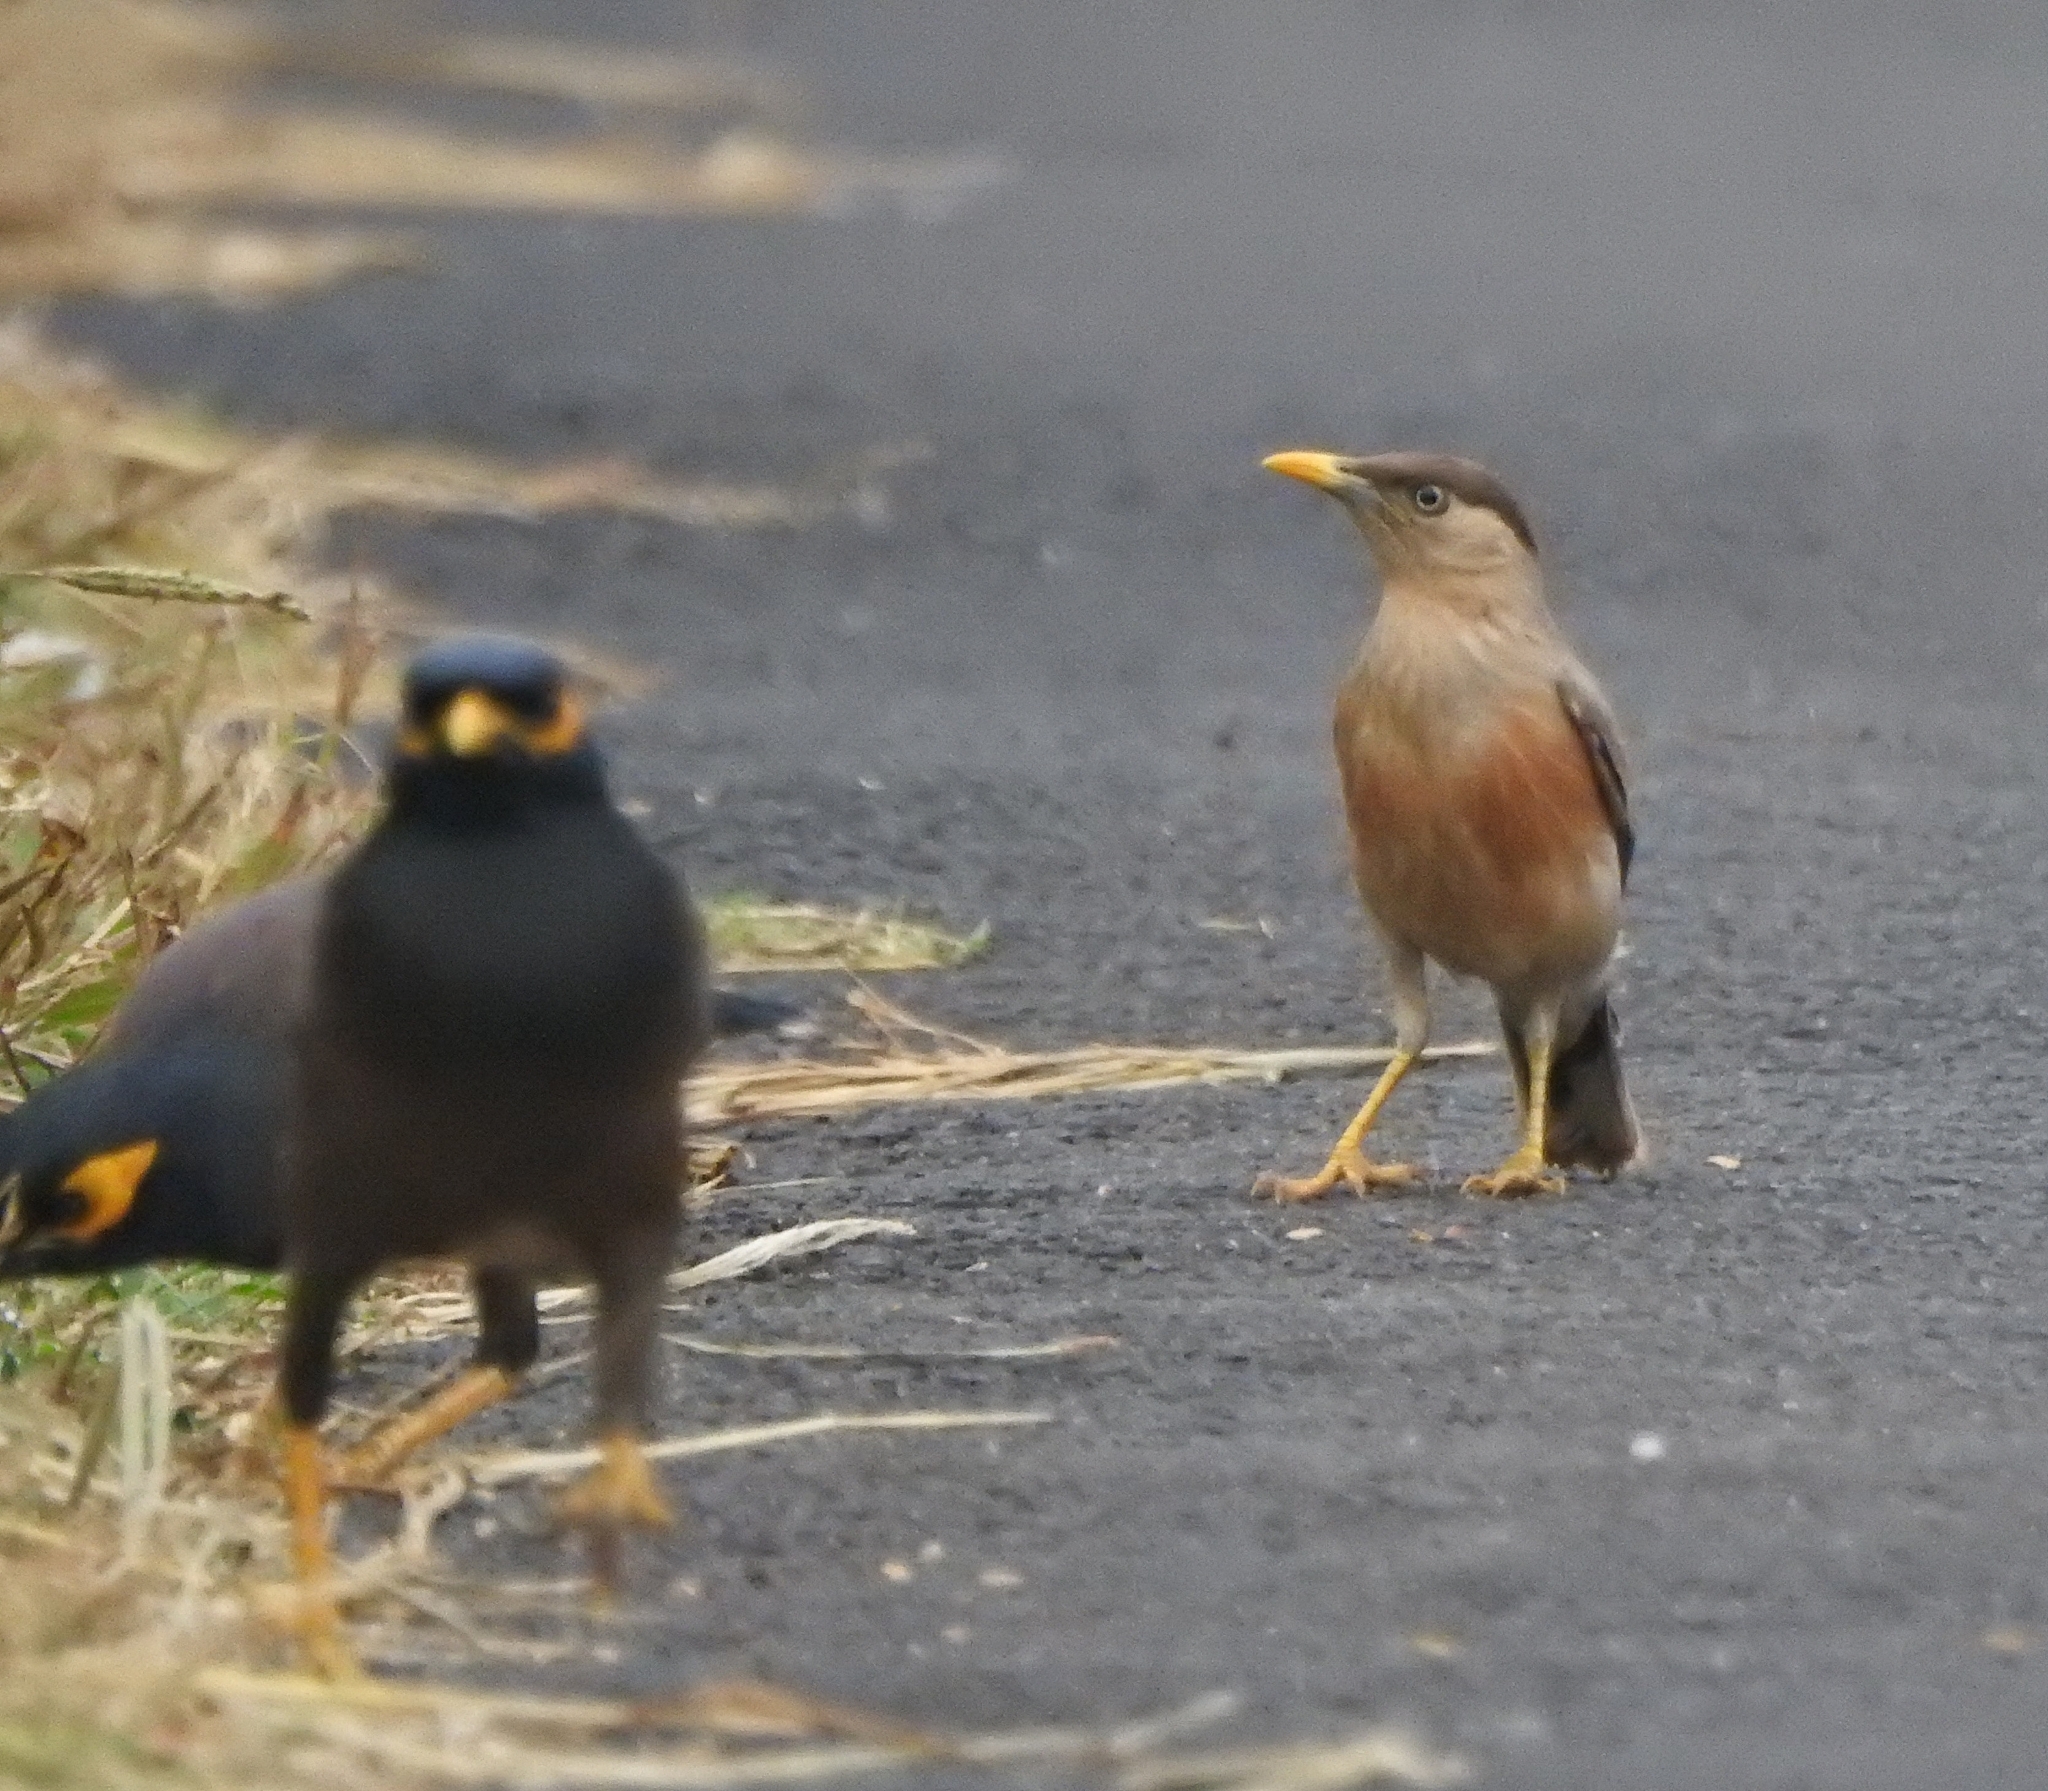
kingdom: Animalia
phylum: Chordata
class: Aves
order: Passeriformes
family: Sturnidae
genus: Sturnia
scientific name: Sturnia pagodarum
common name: Brahminy starling
